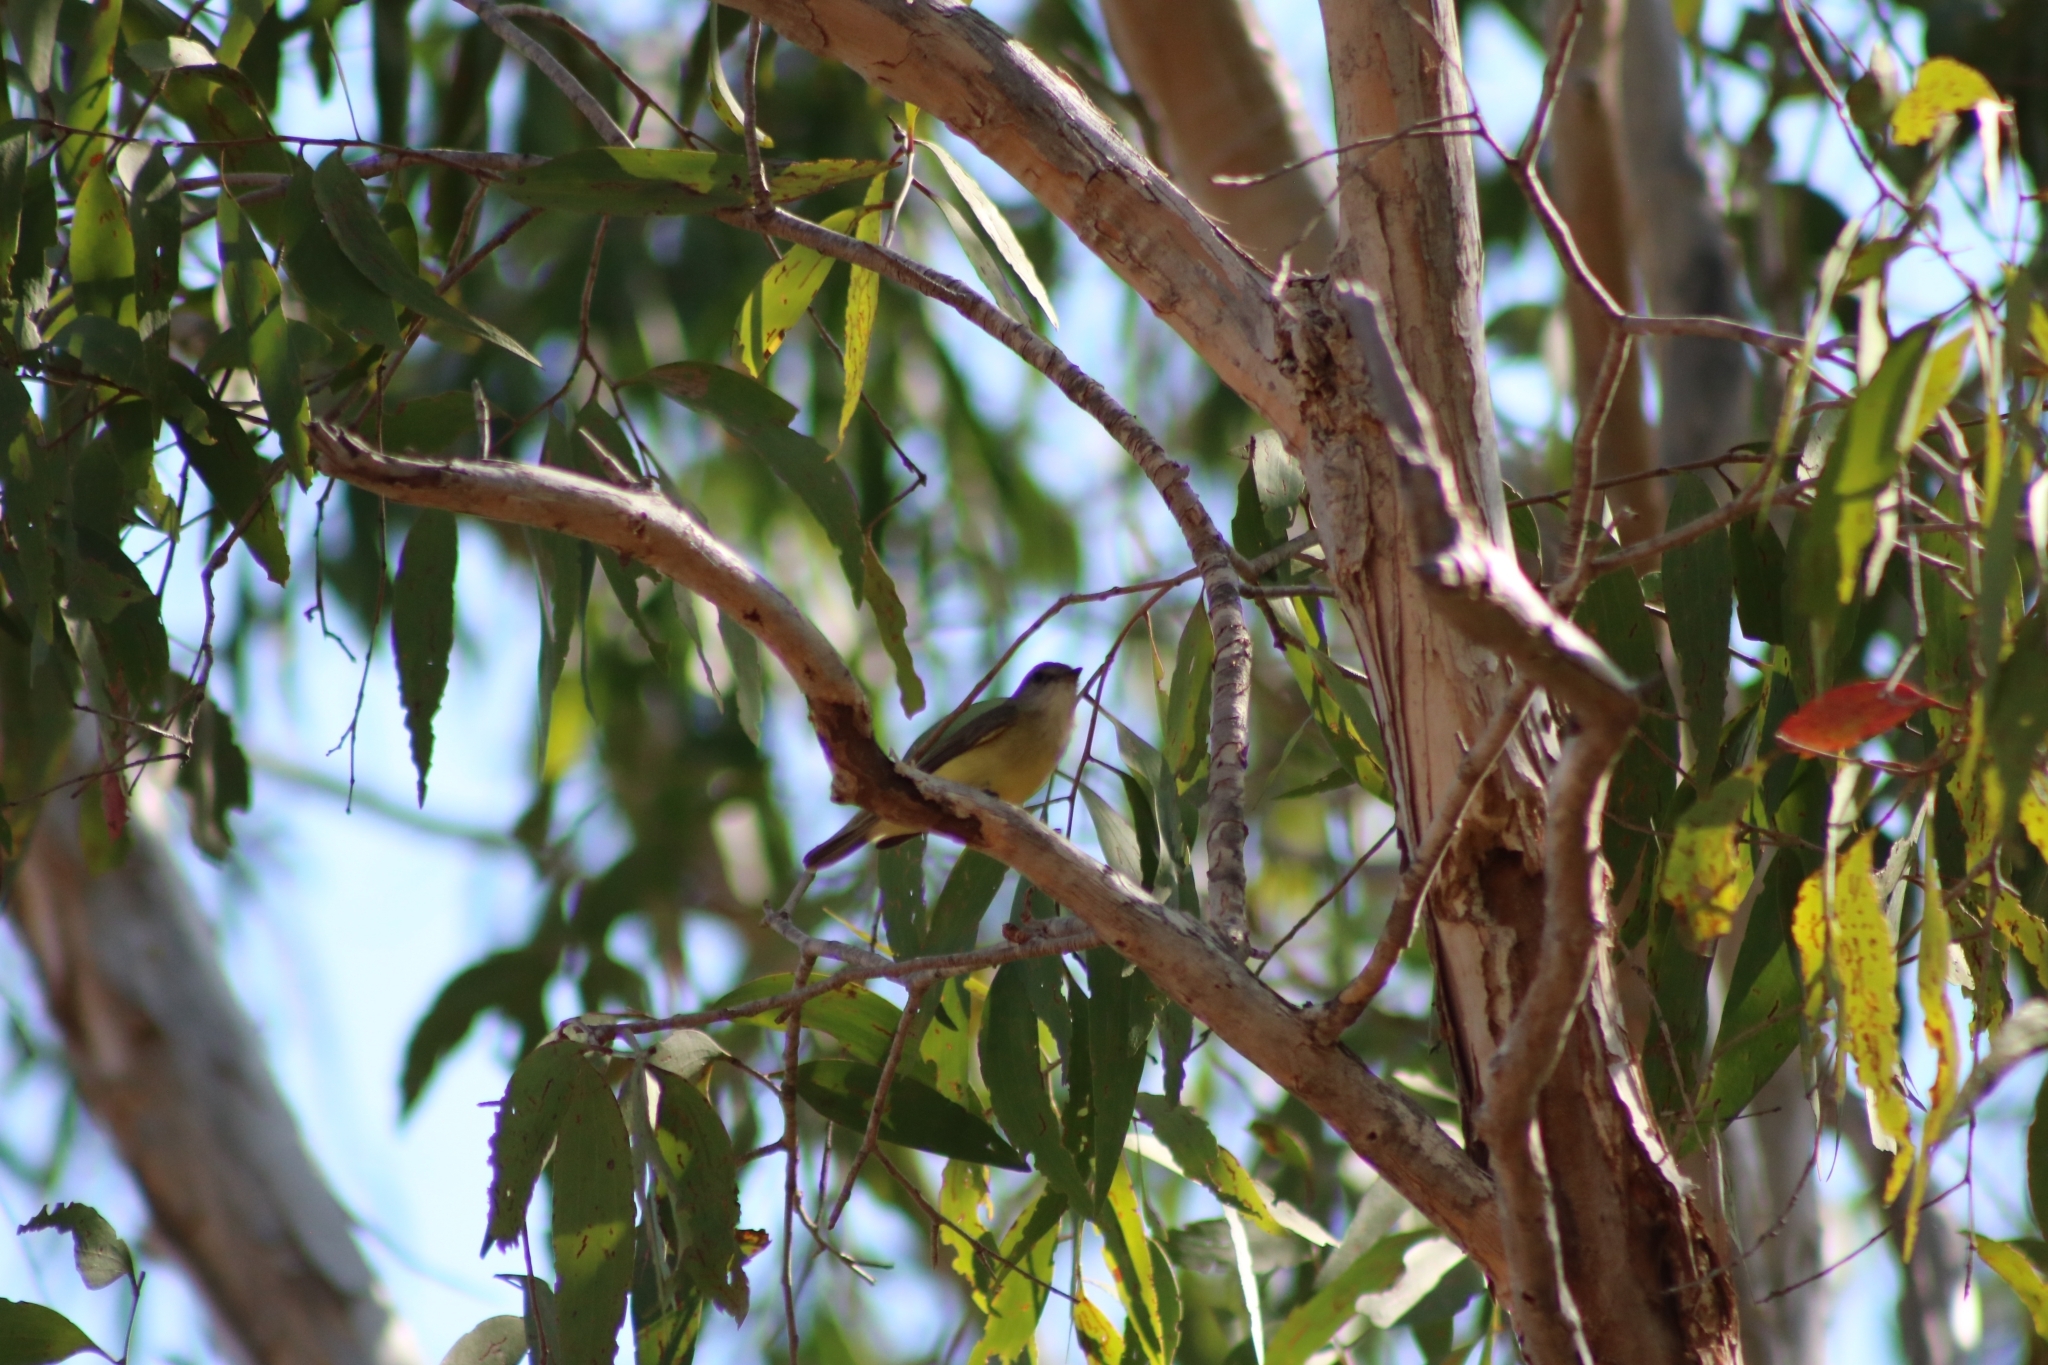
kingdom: Animalia
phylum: Chordata
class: Aves
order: Passeriformes
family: Petroicidae
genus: Microeca
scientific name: Microeca flavigaster
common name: Lemon-bellied flyrobin
